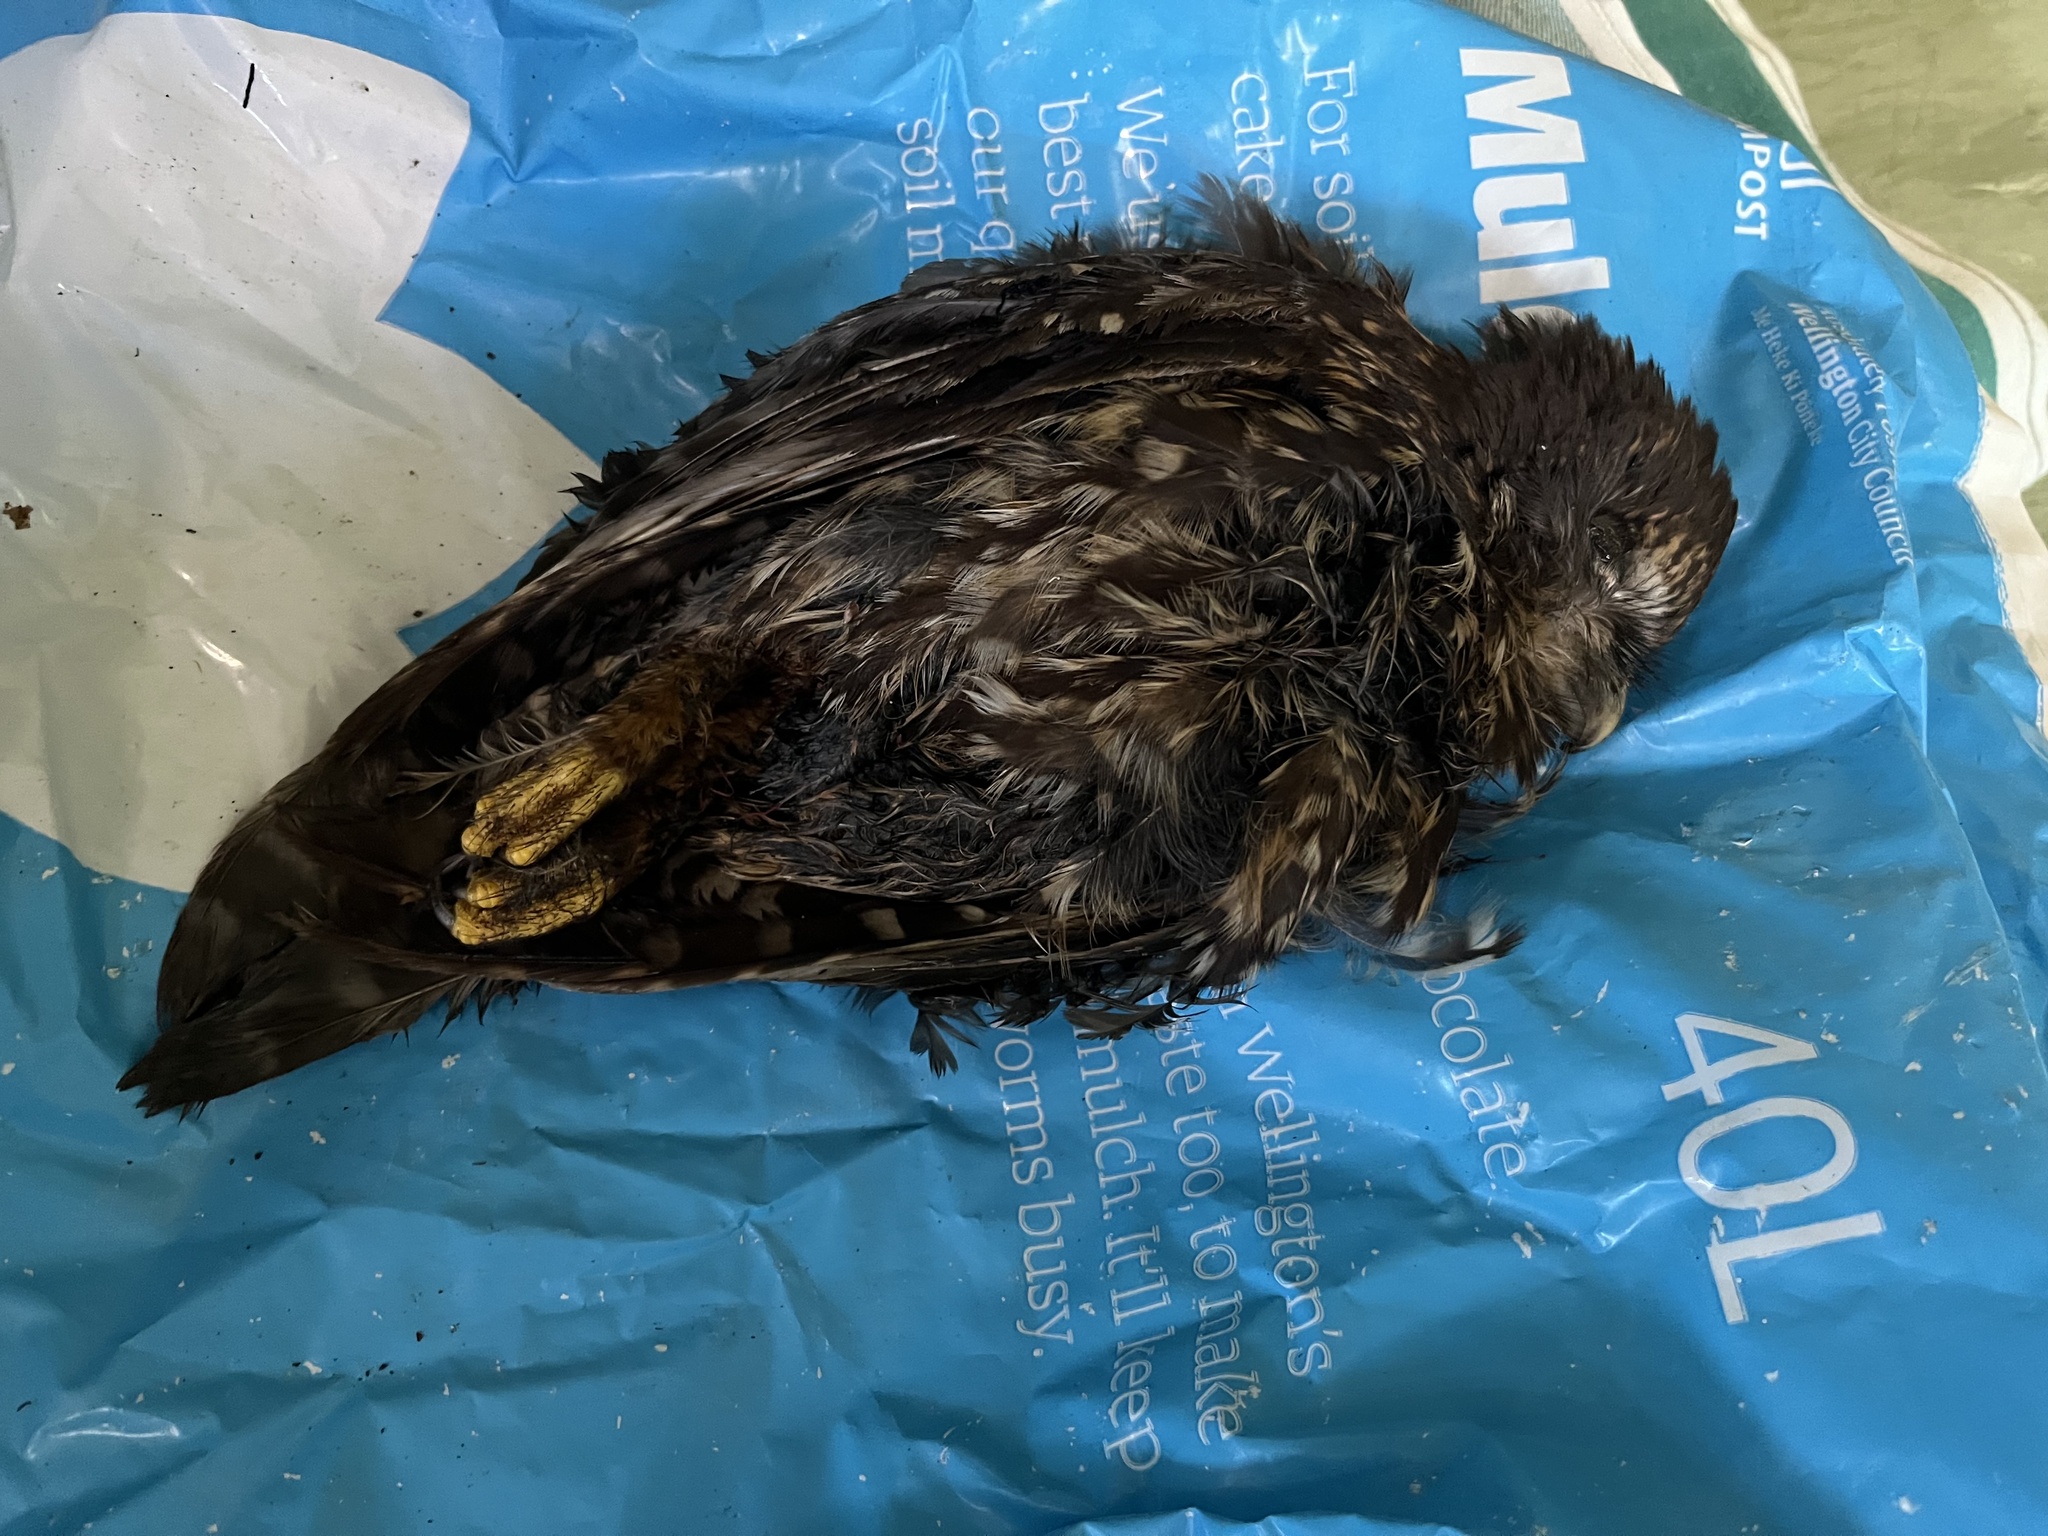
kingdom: Animalia
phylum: Chordata
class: Aves
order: Strigiformes
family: Strigidae
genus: Ninox
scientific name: Ninox novaeseelandiae
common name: Morepork
